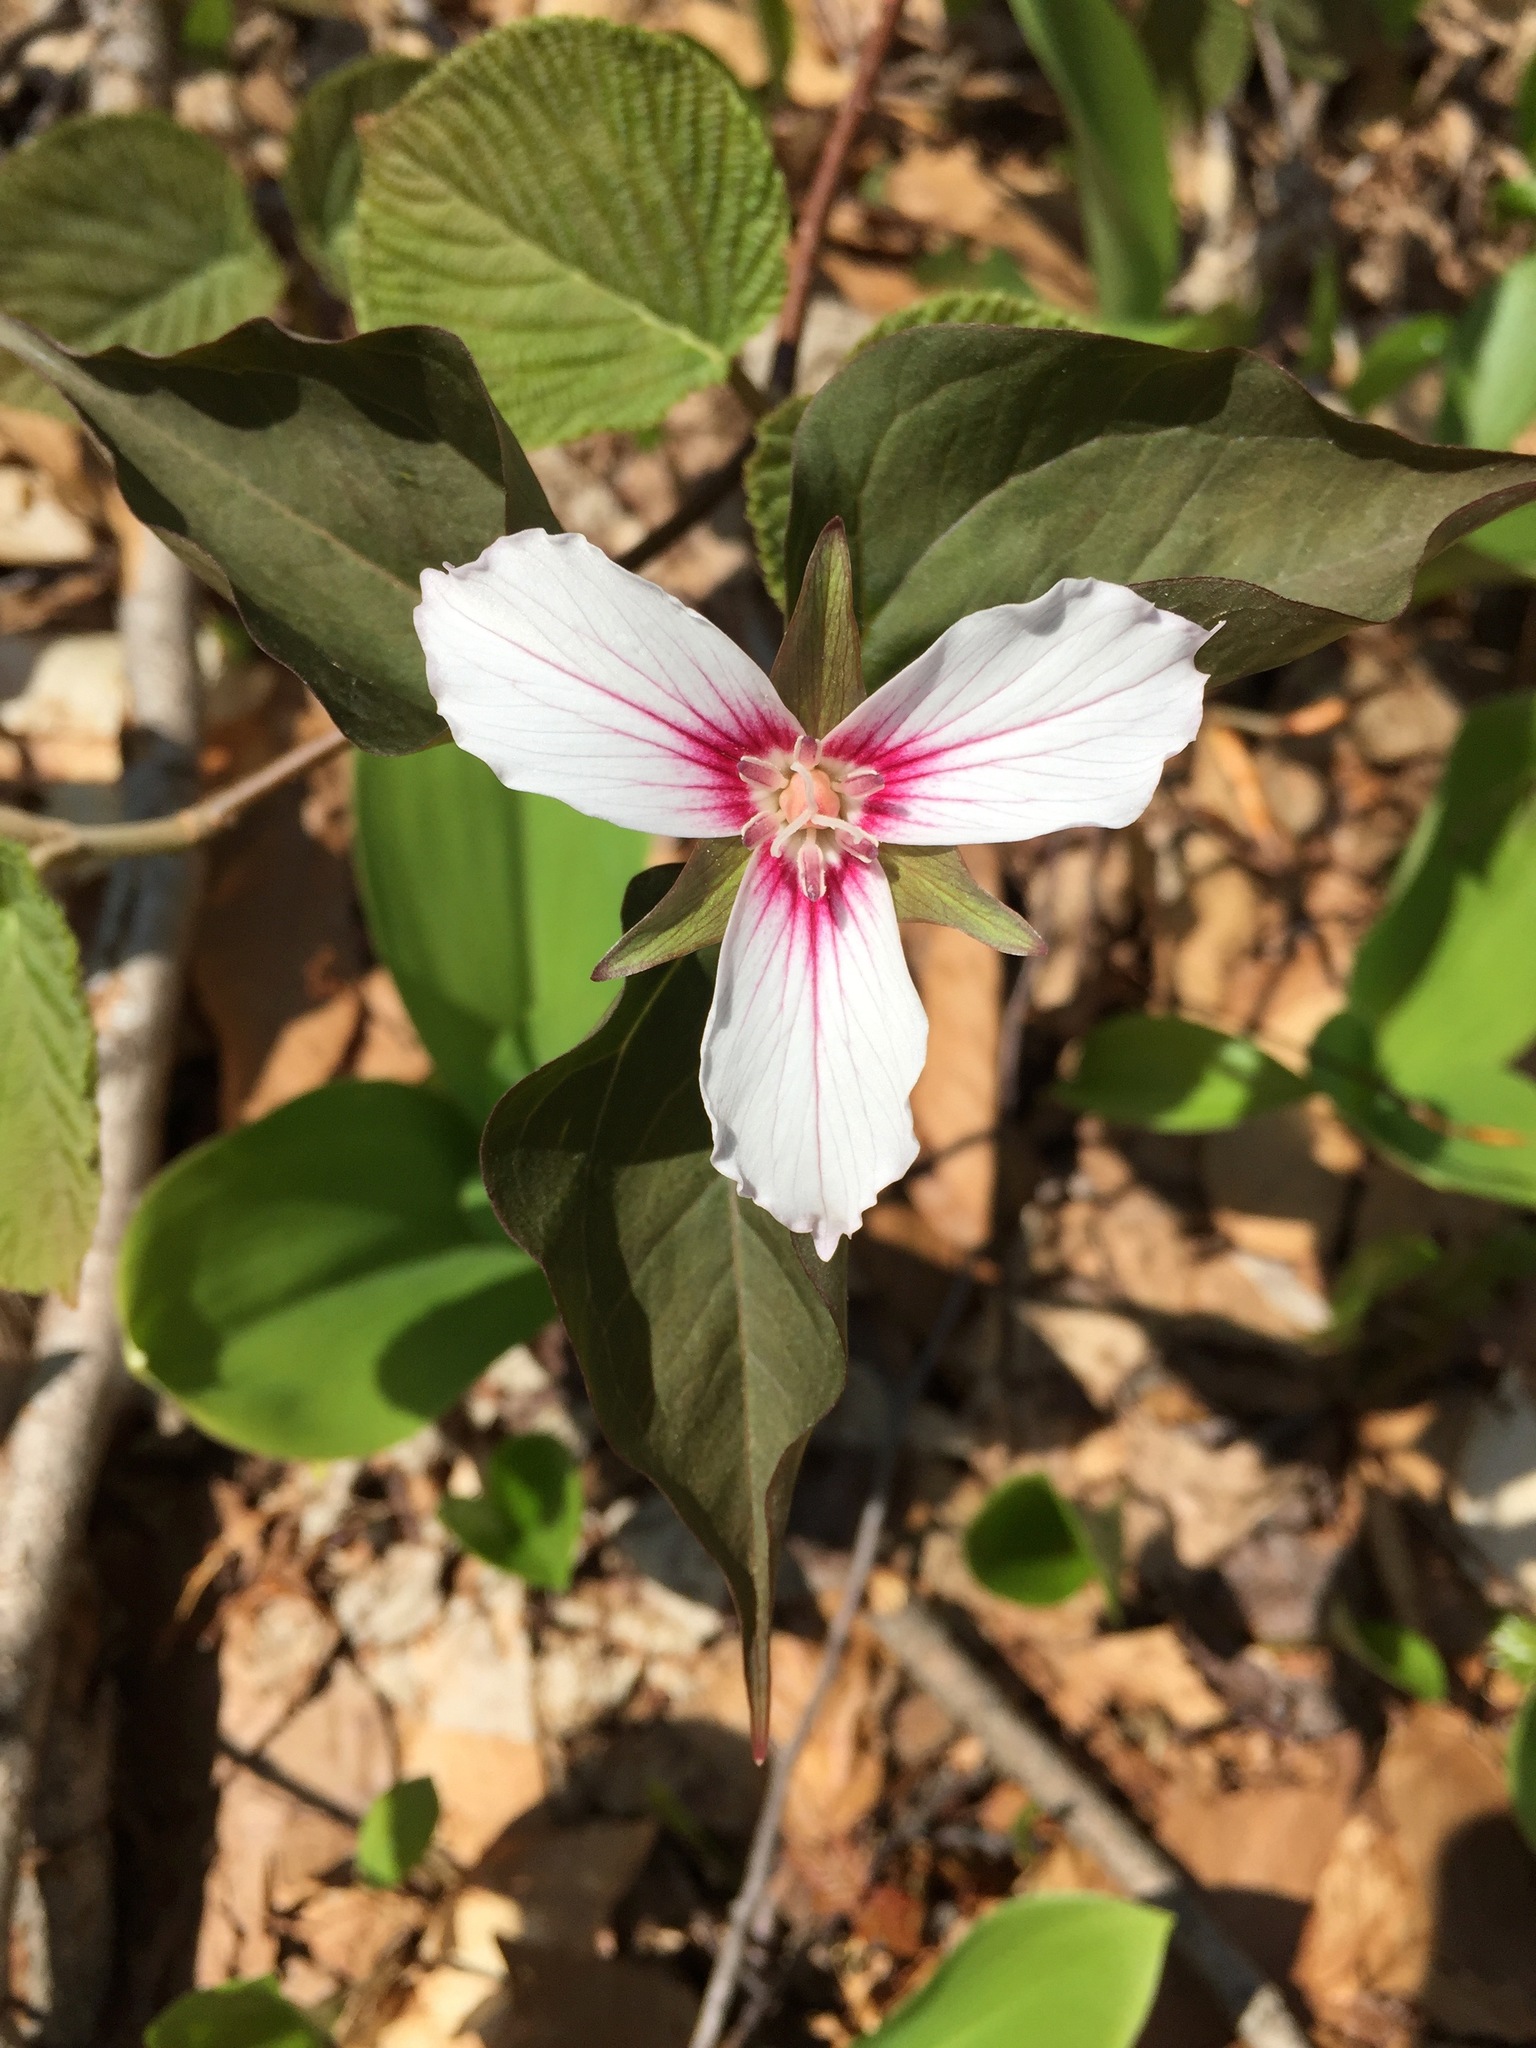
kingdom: Plantae
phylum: Tracheophyta
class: Liliopsida
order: Liliales
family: Melanthiaceae
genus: Trillium
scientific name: Trillium undulatum
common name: Paint trillium
